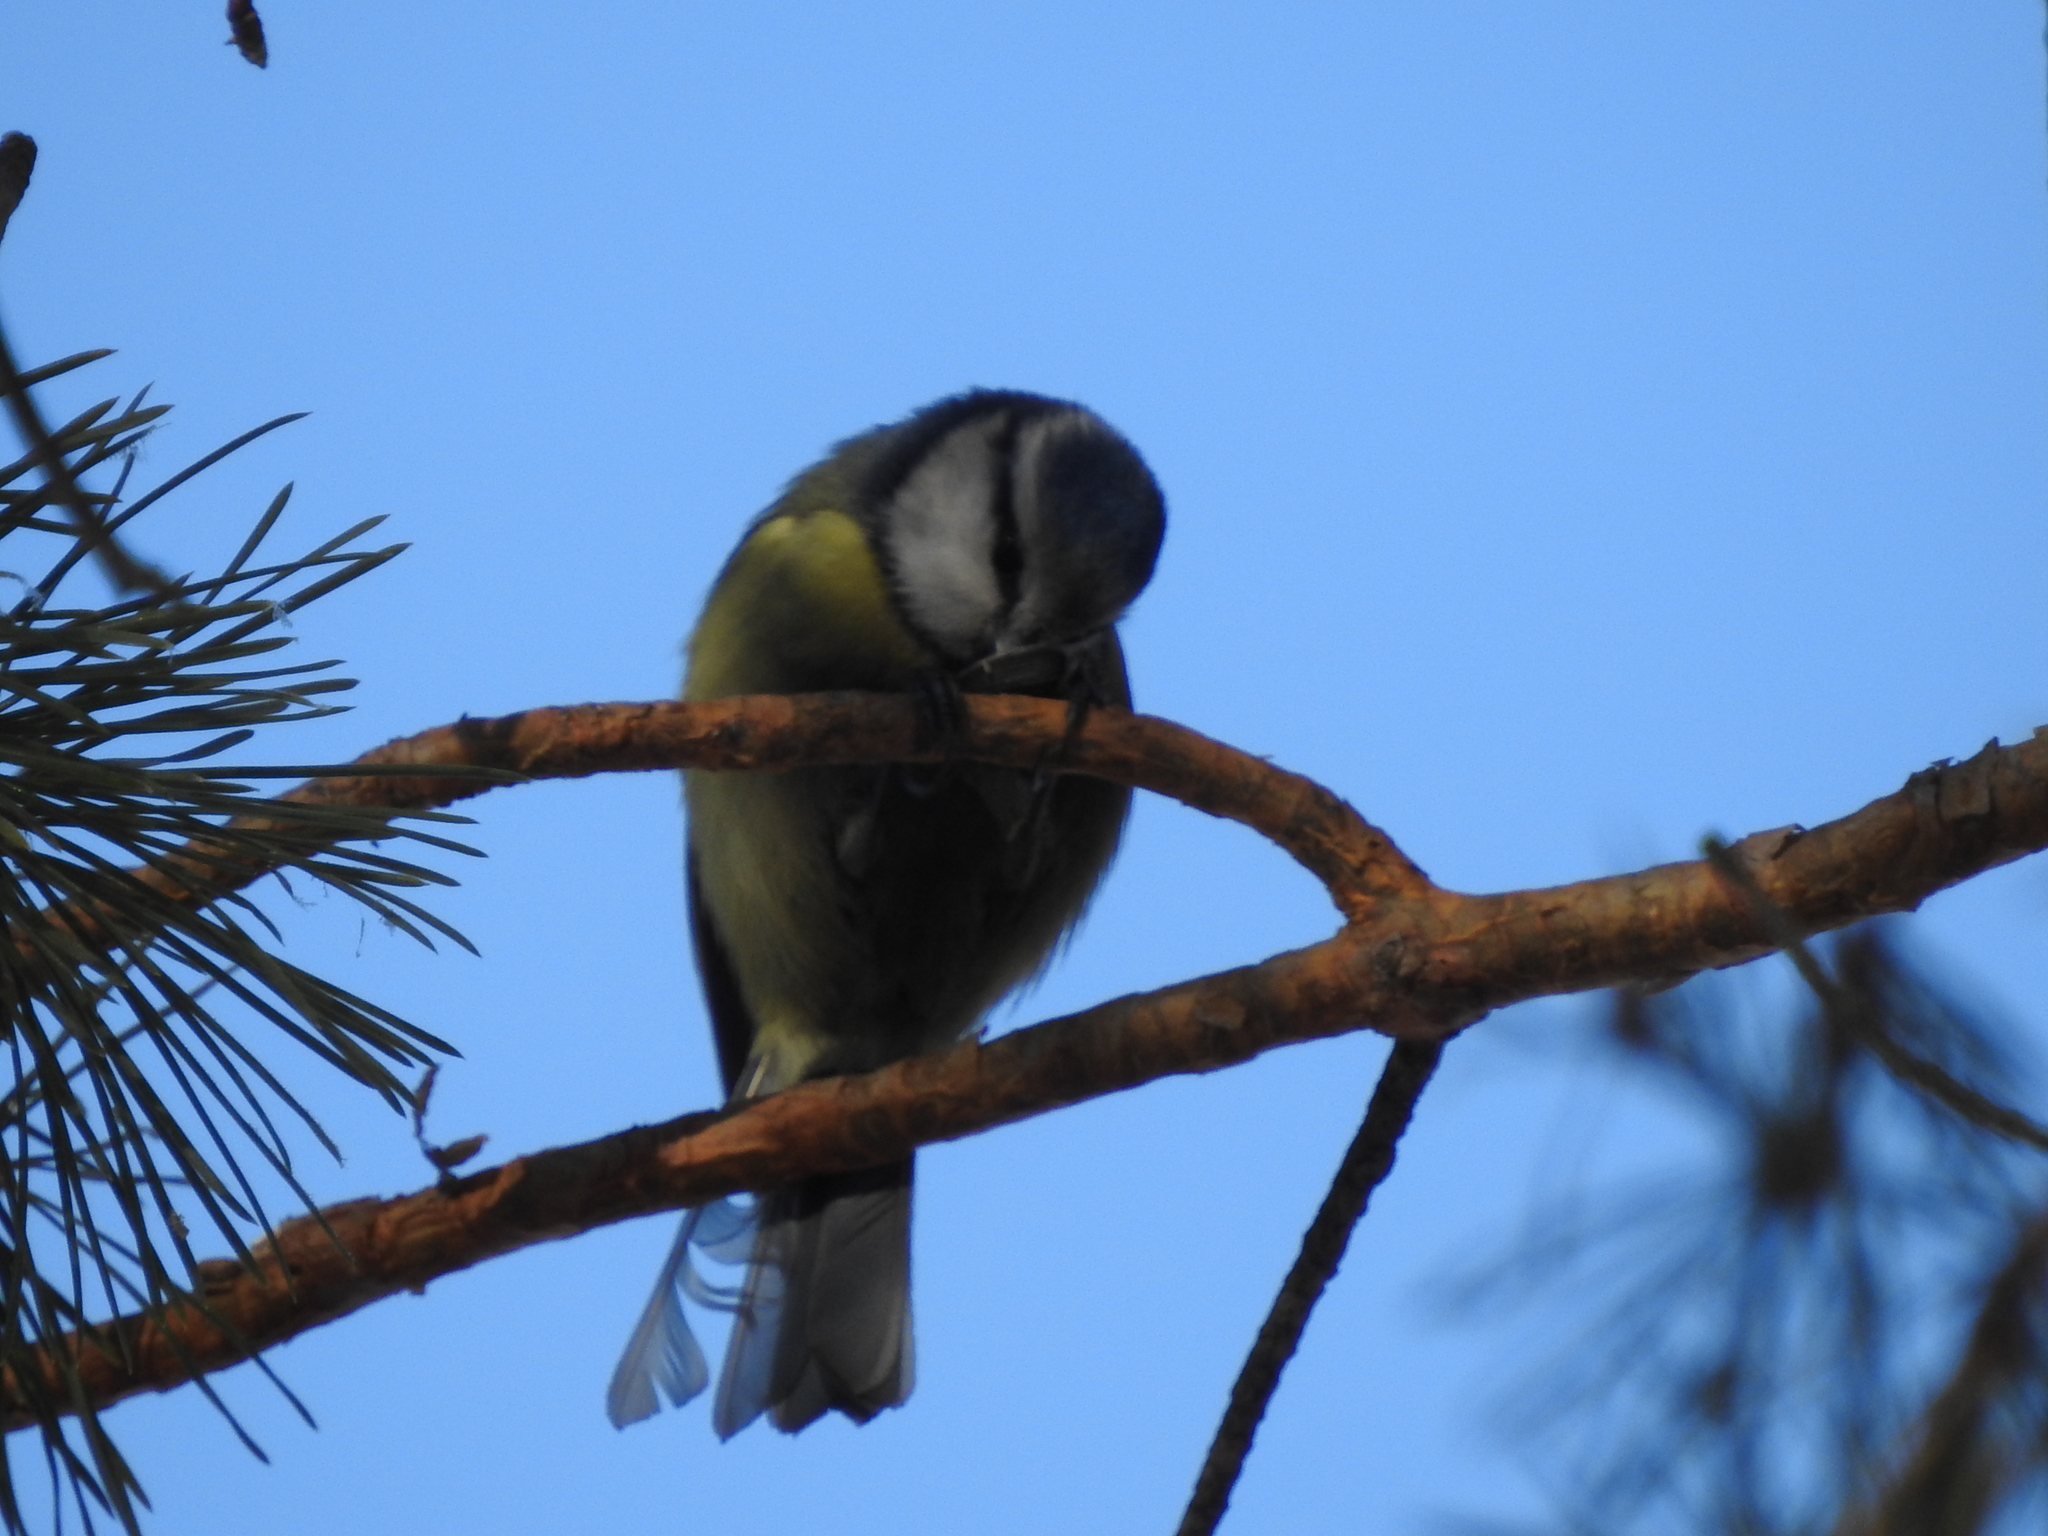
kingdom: Animalia
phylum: Chordata
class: Aves
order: Passeriformes
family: Paridae
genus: Cyanistes
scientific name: Cyanistes caeruleus
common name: Eurasian blue tit
